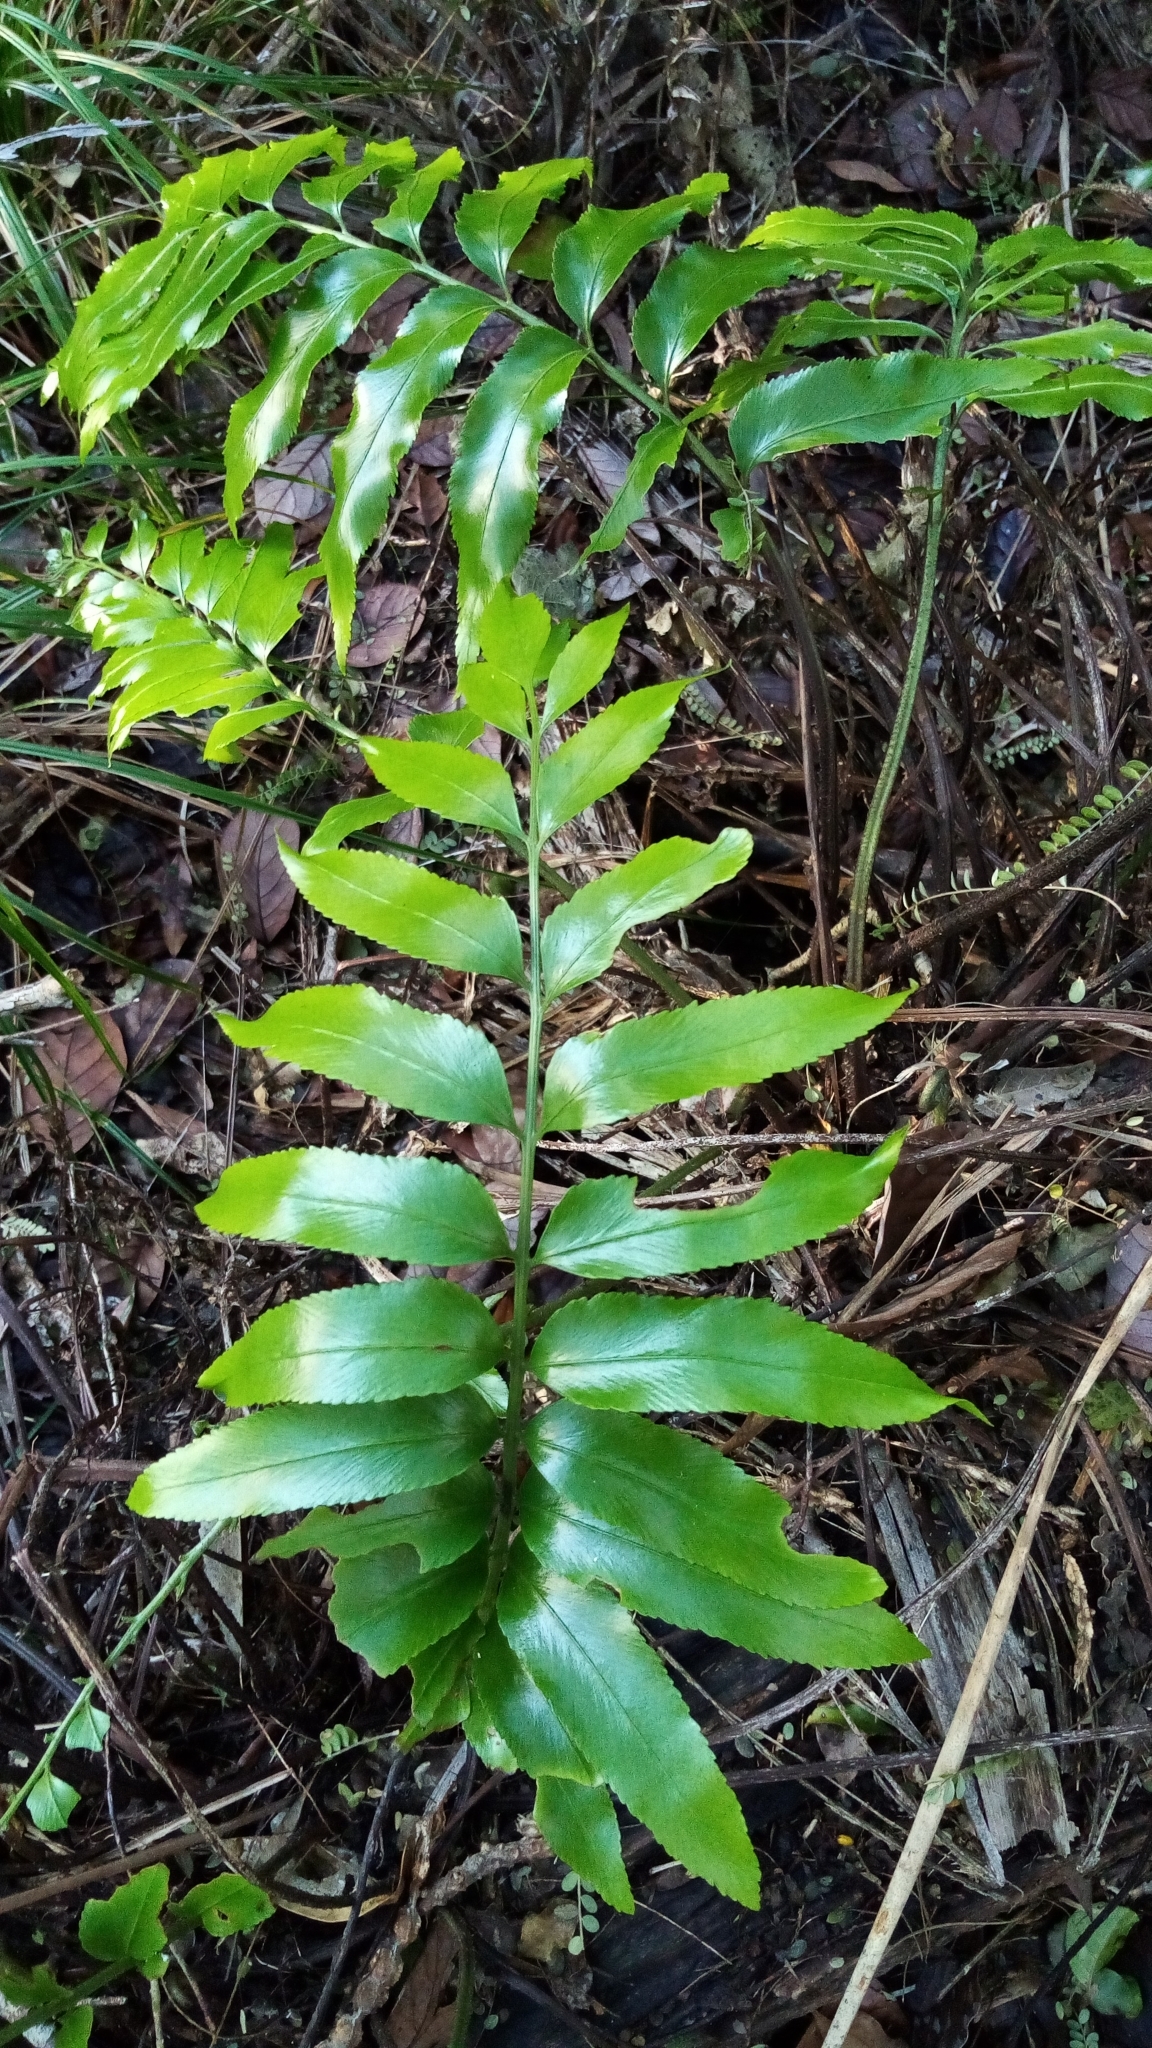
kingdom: Plantae
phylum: Tracheophyta
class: Polypodiopsida
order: Polypodiales
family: Aspleniaceae
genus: Asplenium
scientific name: Asplenium oblongifolium
